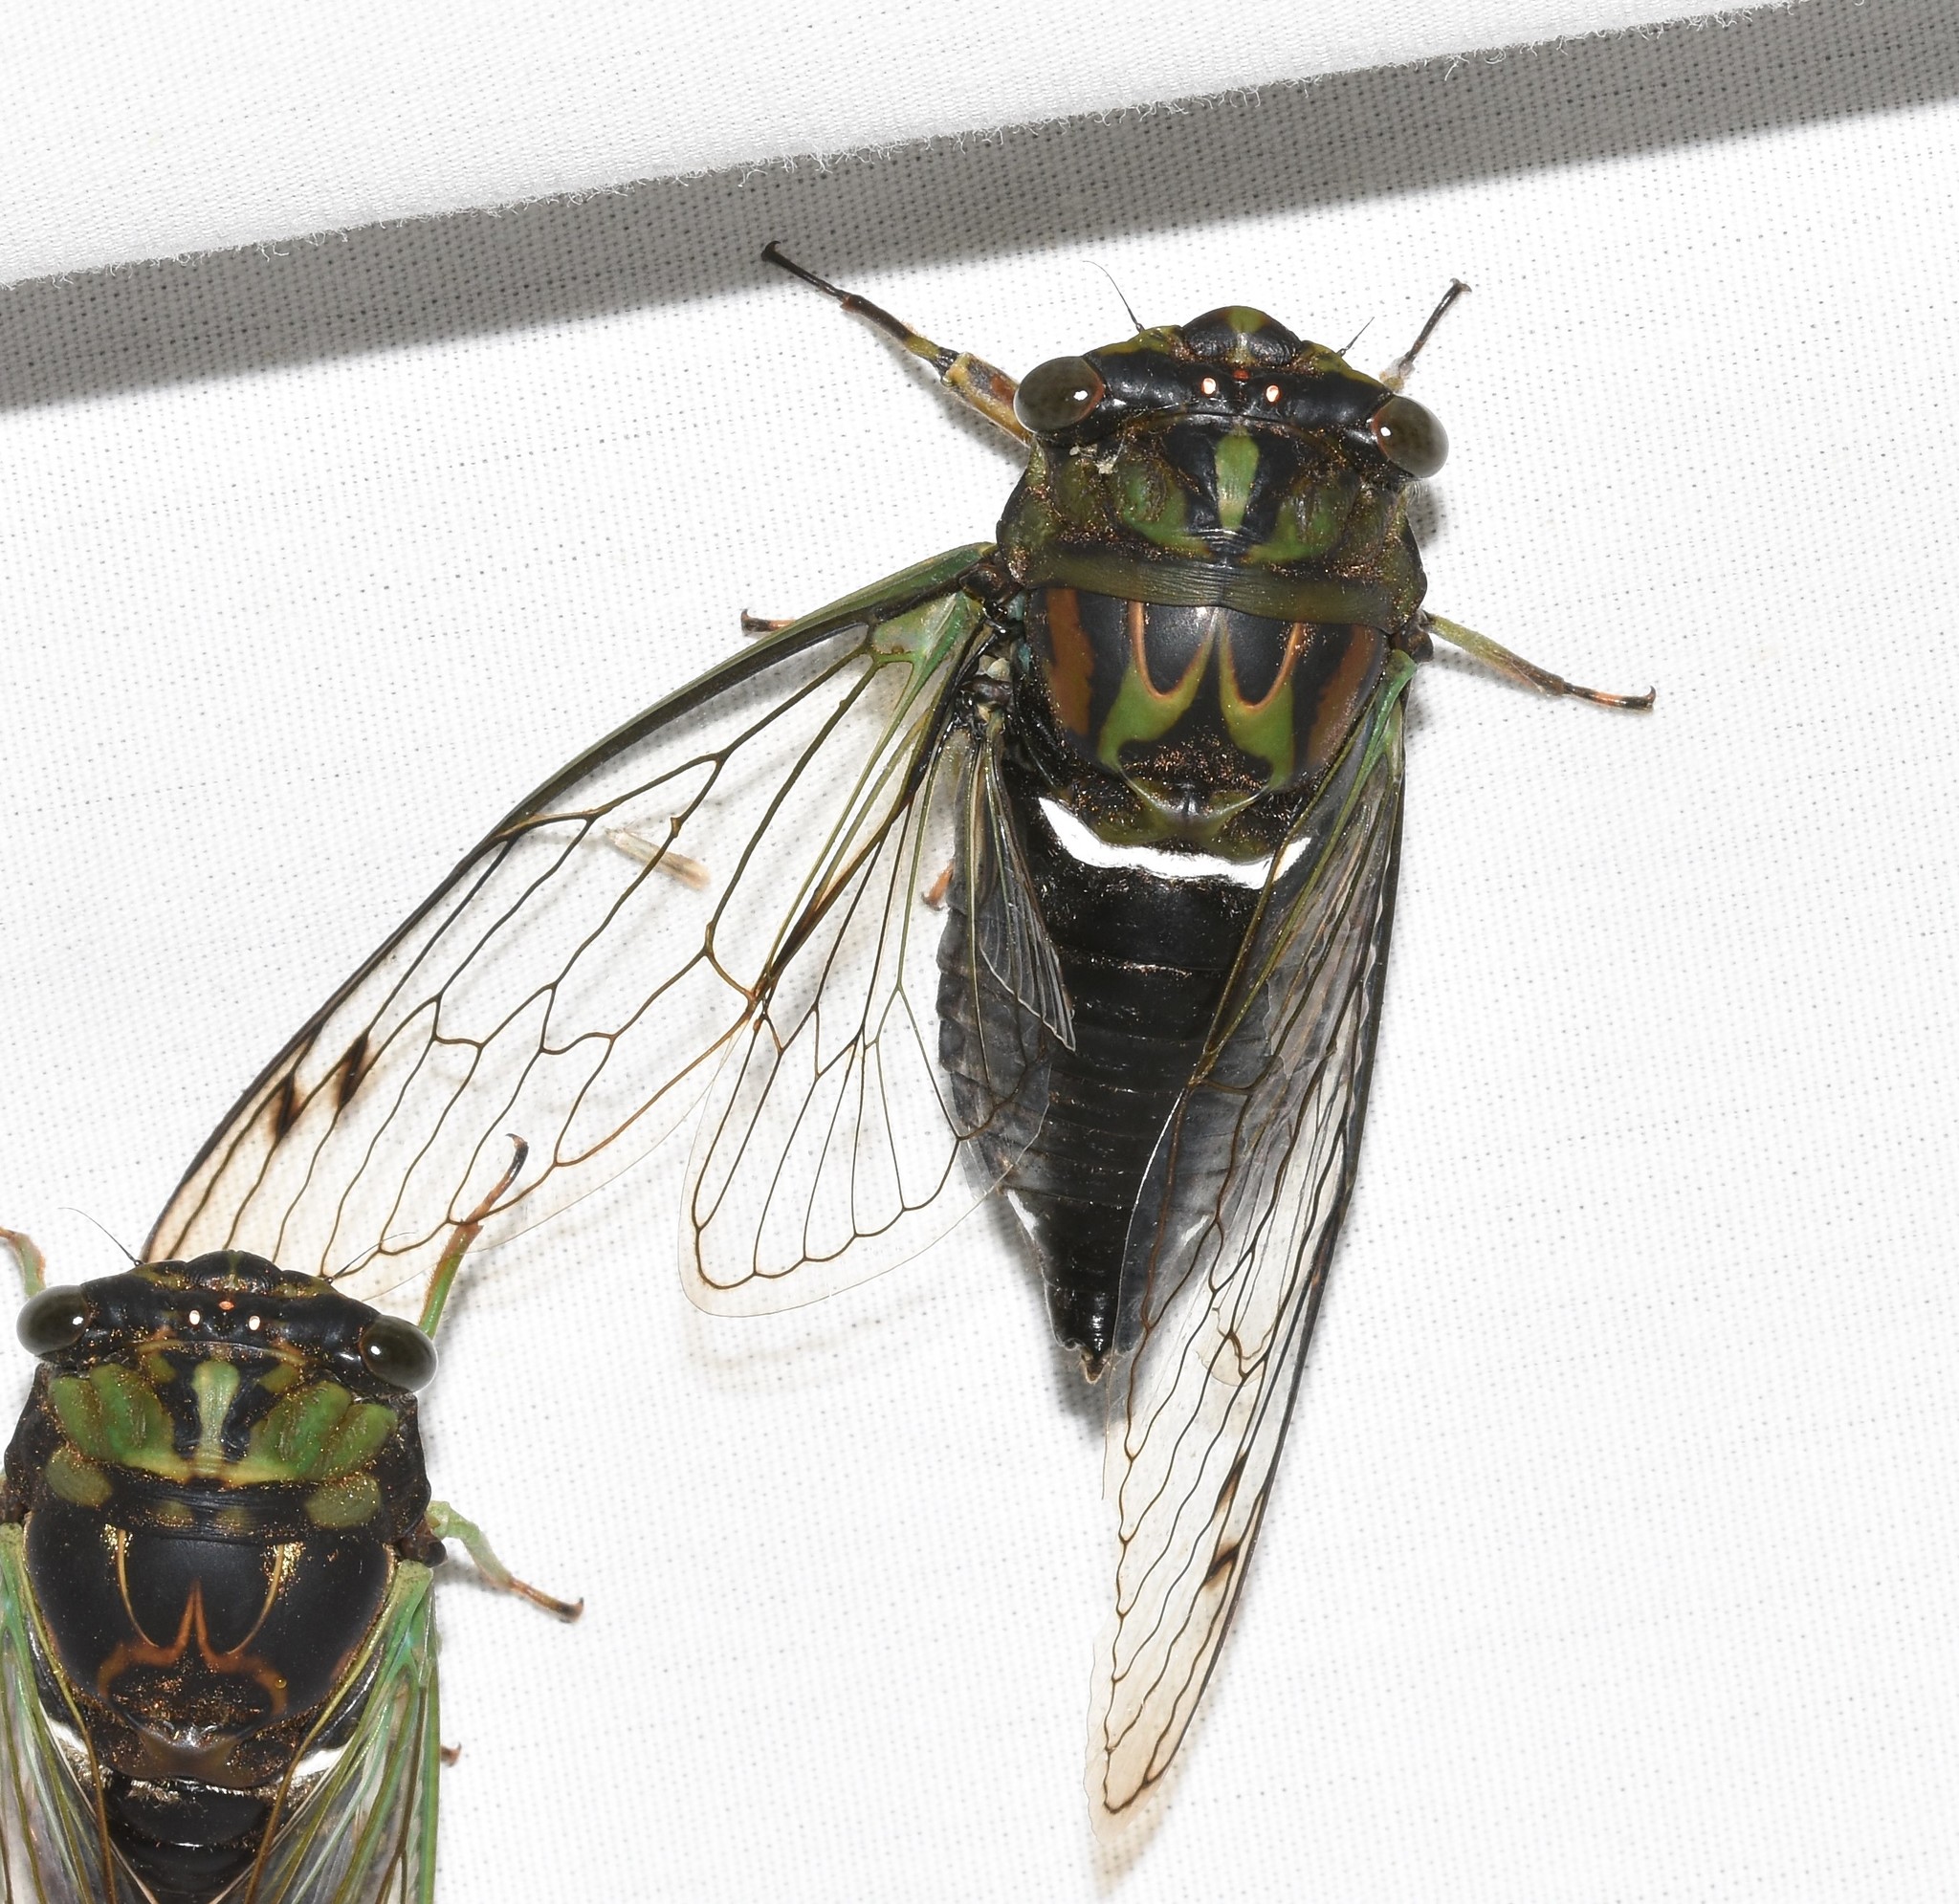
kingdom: Animalia
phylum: Arthropoda
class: Insecta
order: Hemiptera
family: Cicadidae
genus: Neotibicen
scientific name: Neotibicen robinsonianus
